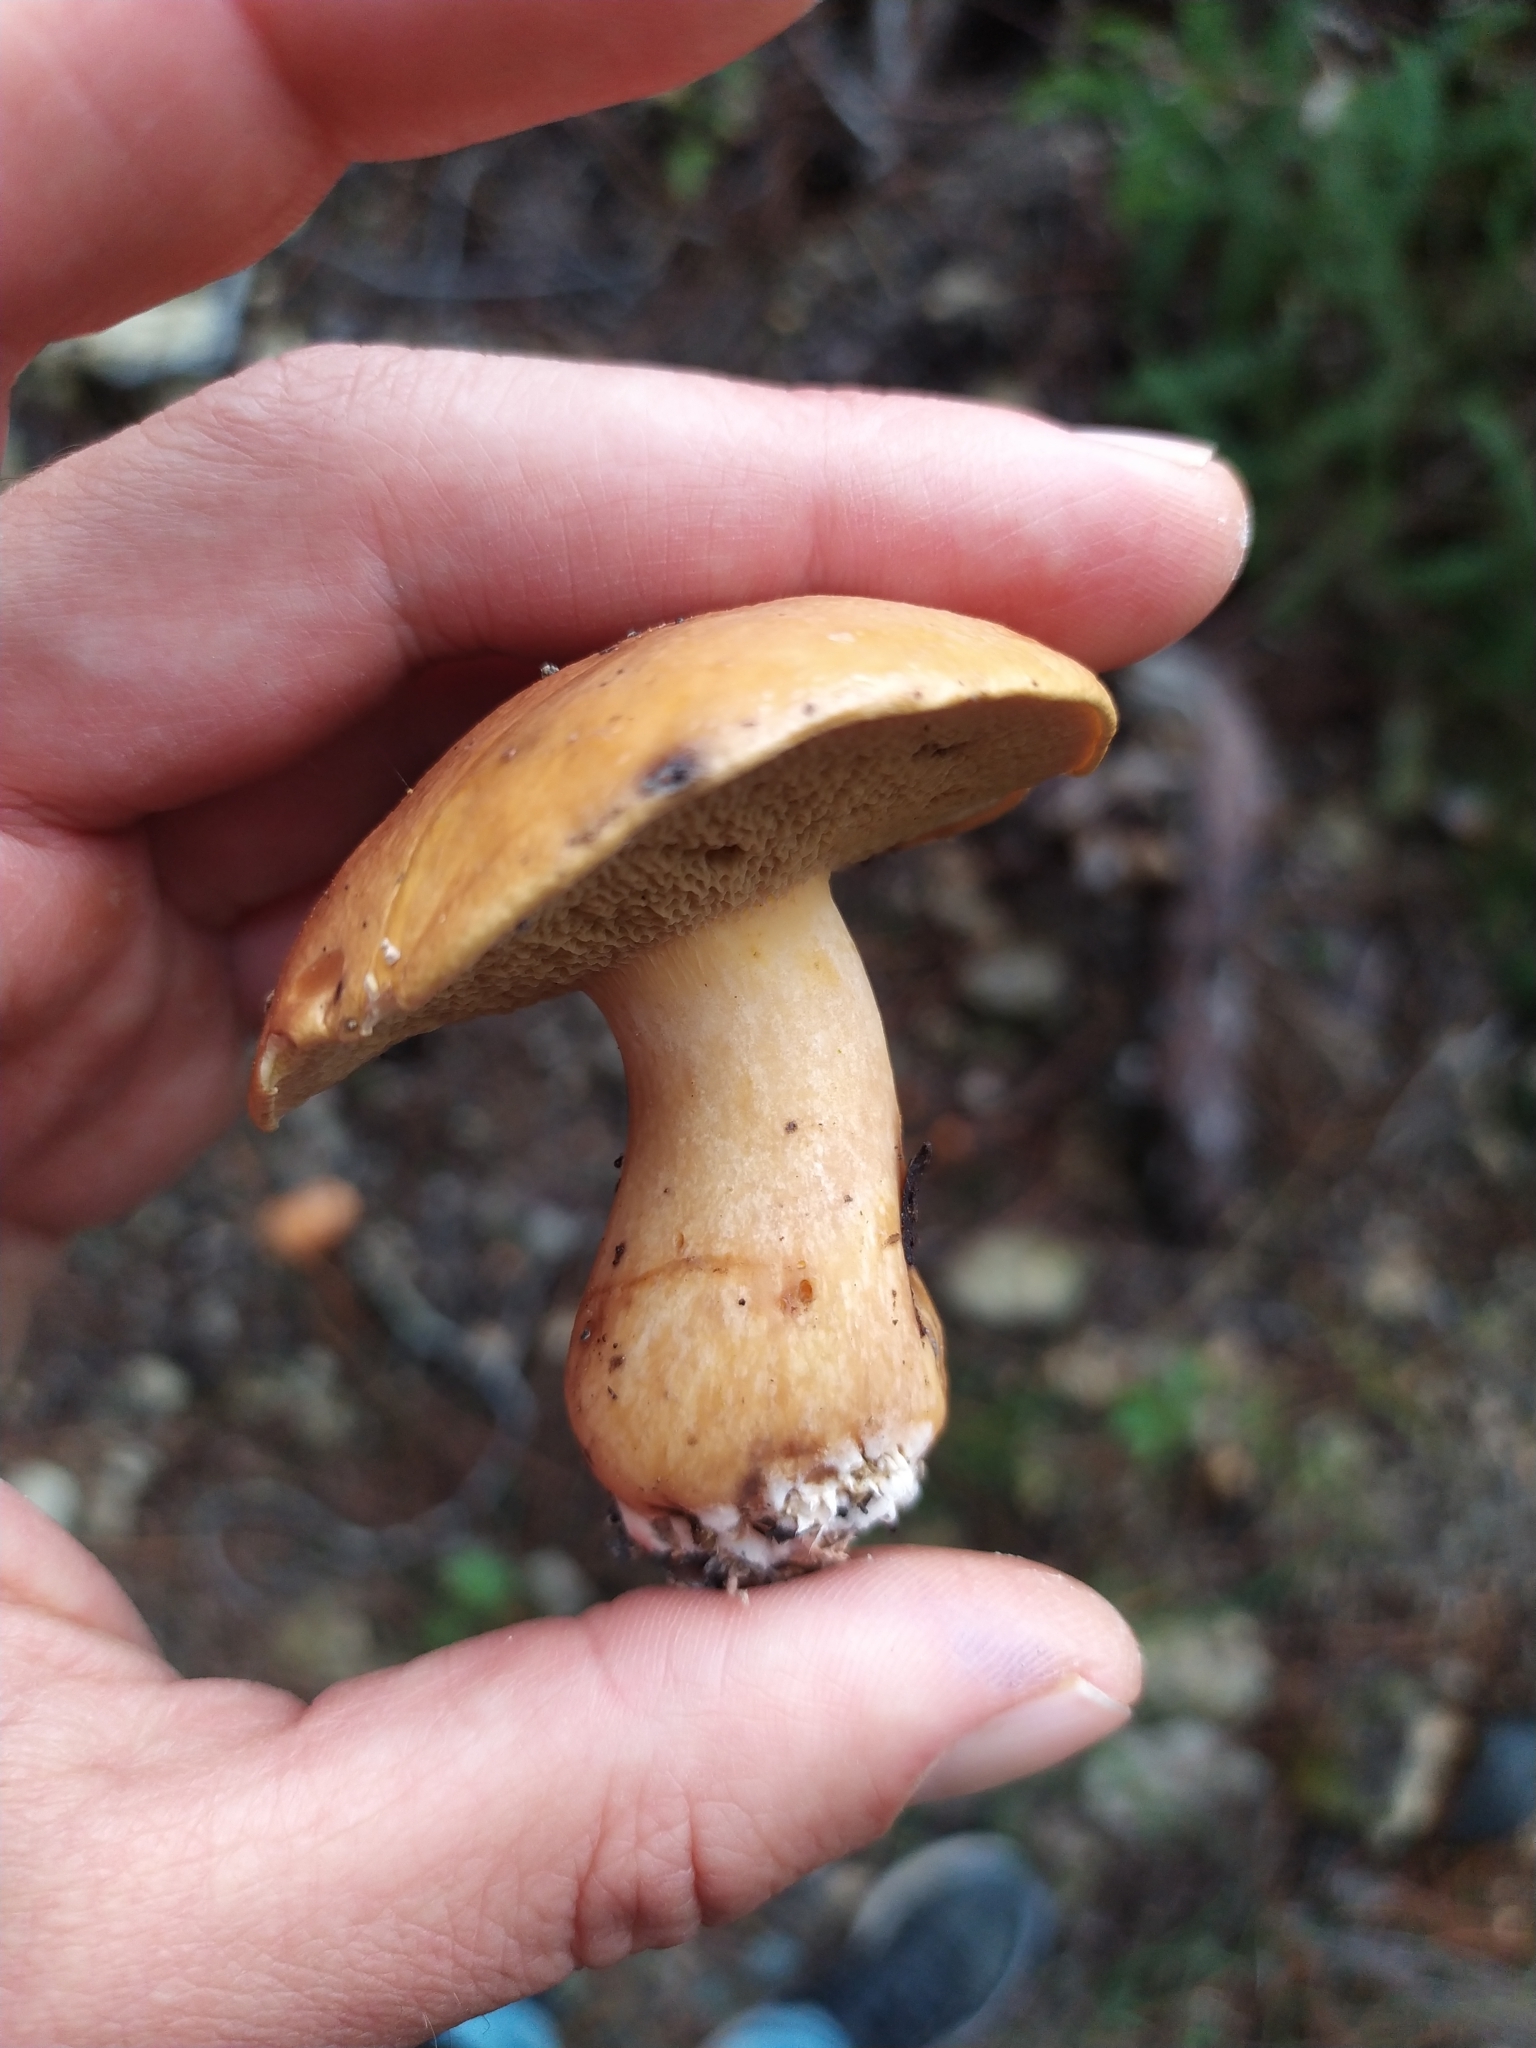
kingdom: Fungi
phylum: Basidiomycota
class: Agaricomycetes
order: Boletales
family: Suillaceae
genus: Suillus
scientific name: Suillus bovinus
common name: Bovine bolete
